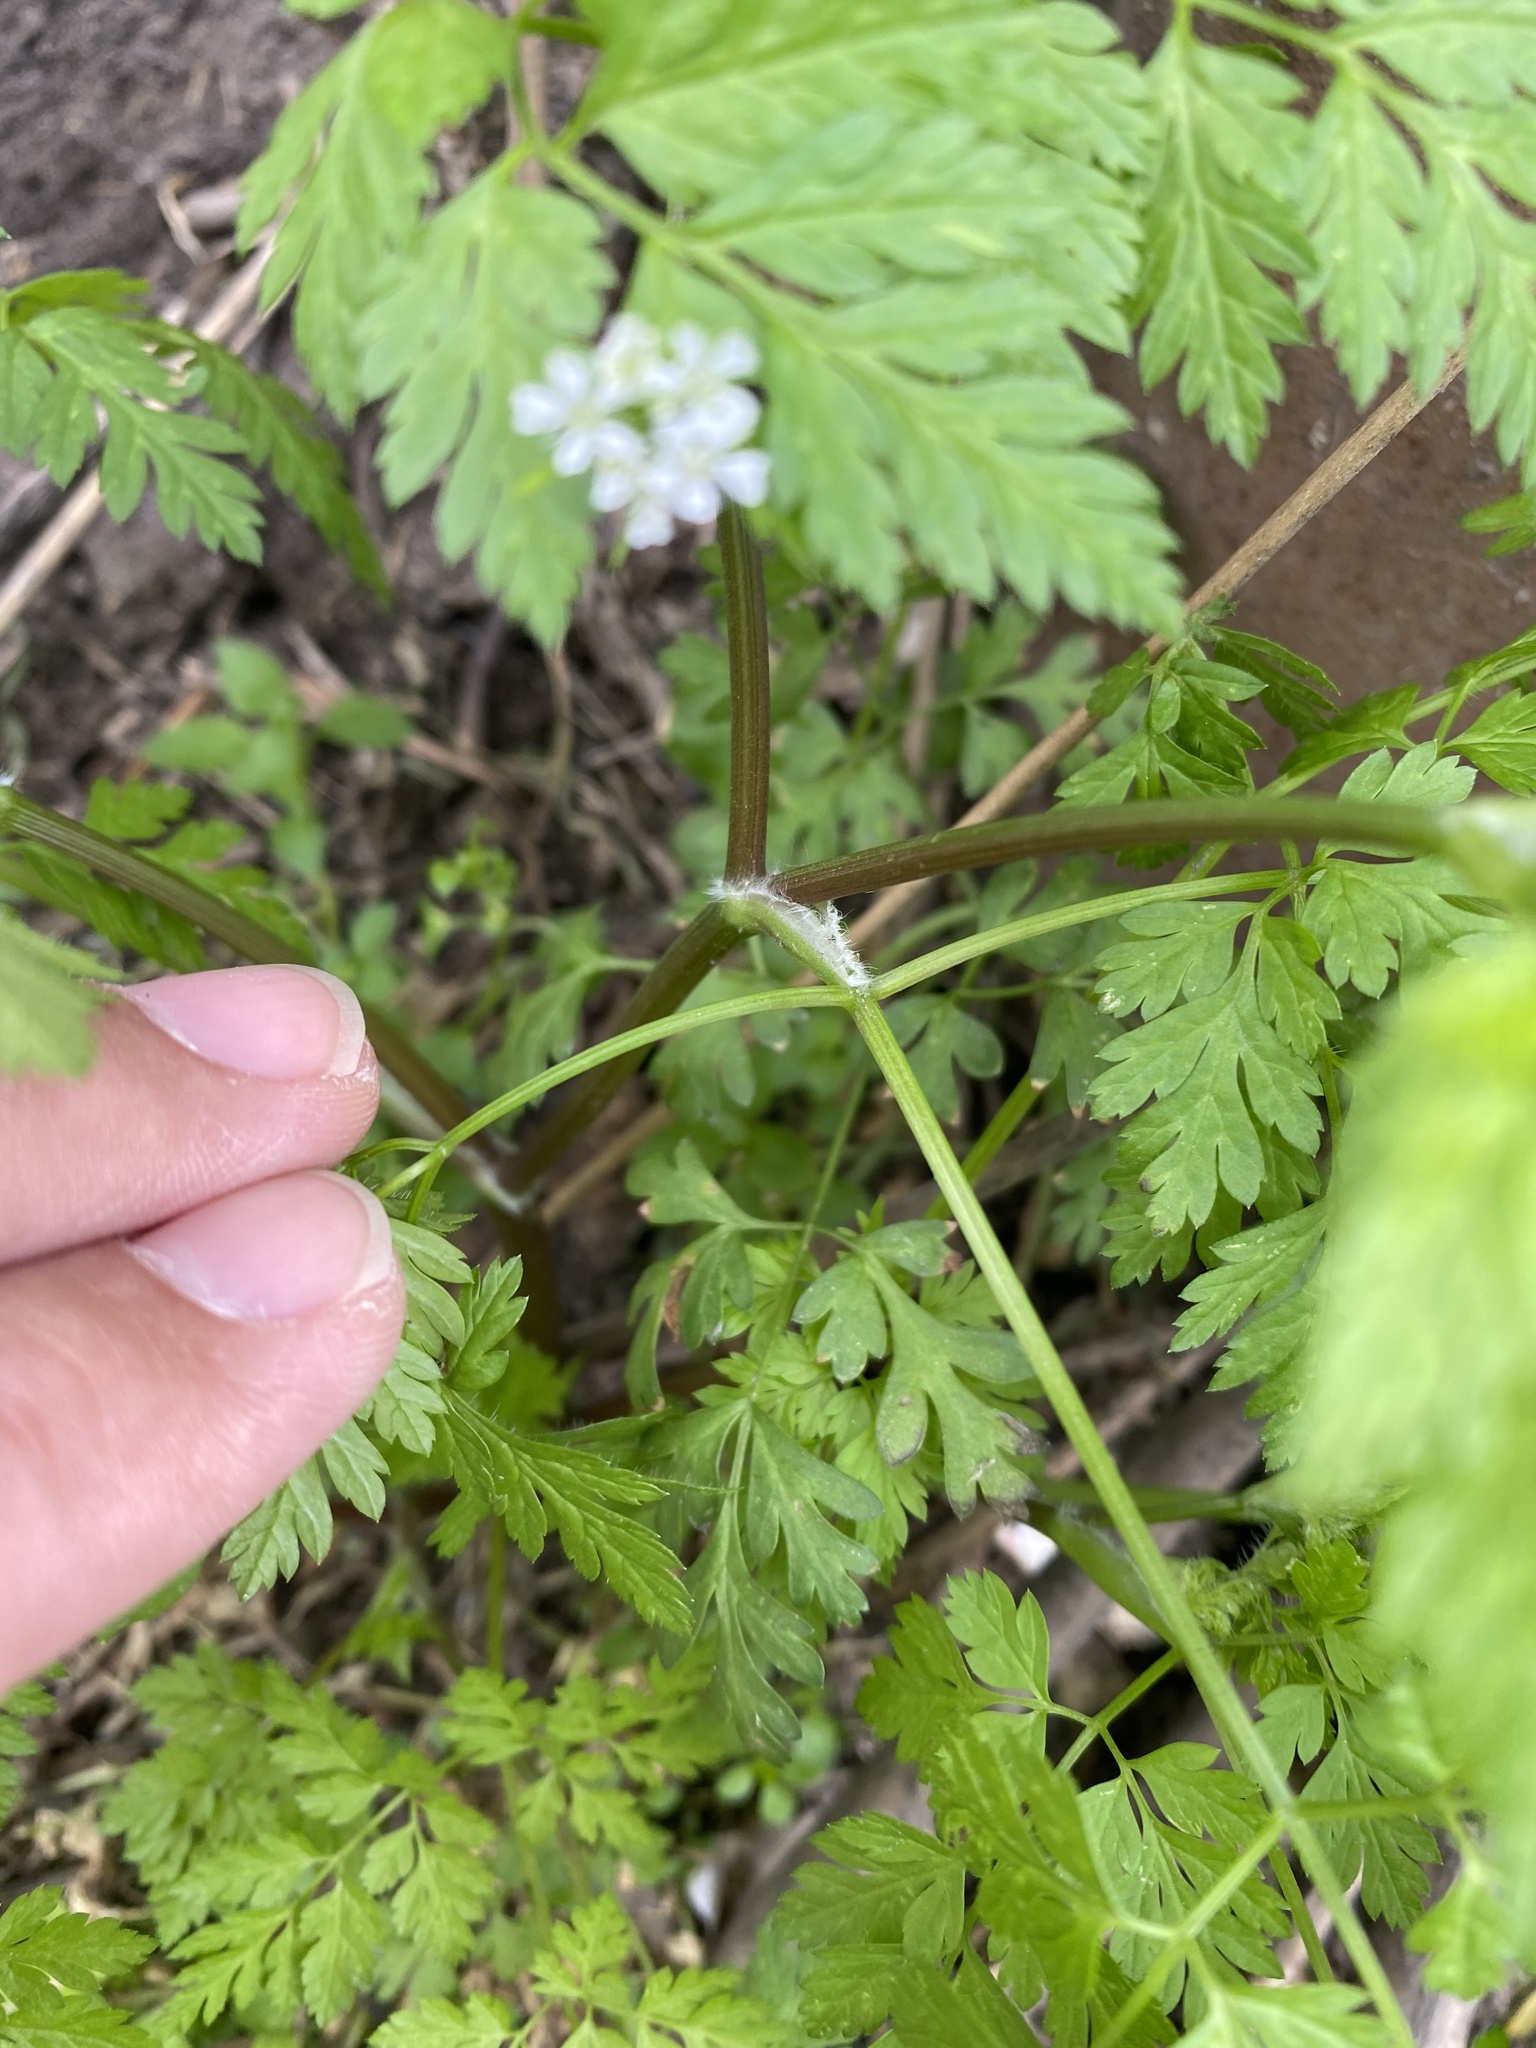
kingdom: Plantae
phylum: Tracheophyta
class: Magnoliopsida
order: Apiales
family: Apiaceae
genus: Anthriscus
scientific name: Anthriscus cerefolium
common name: Garden chervil
